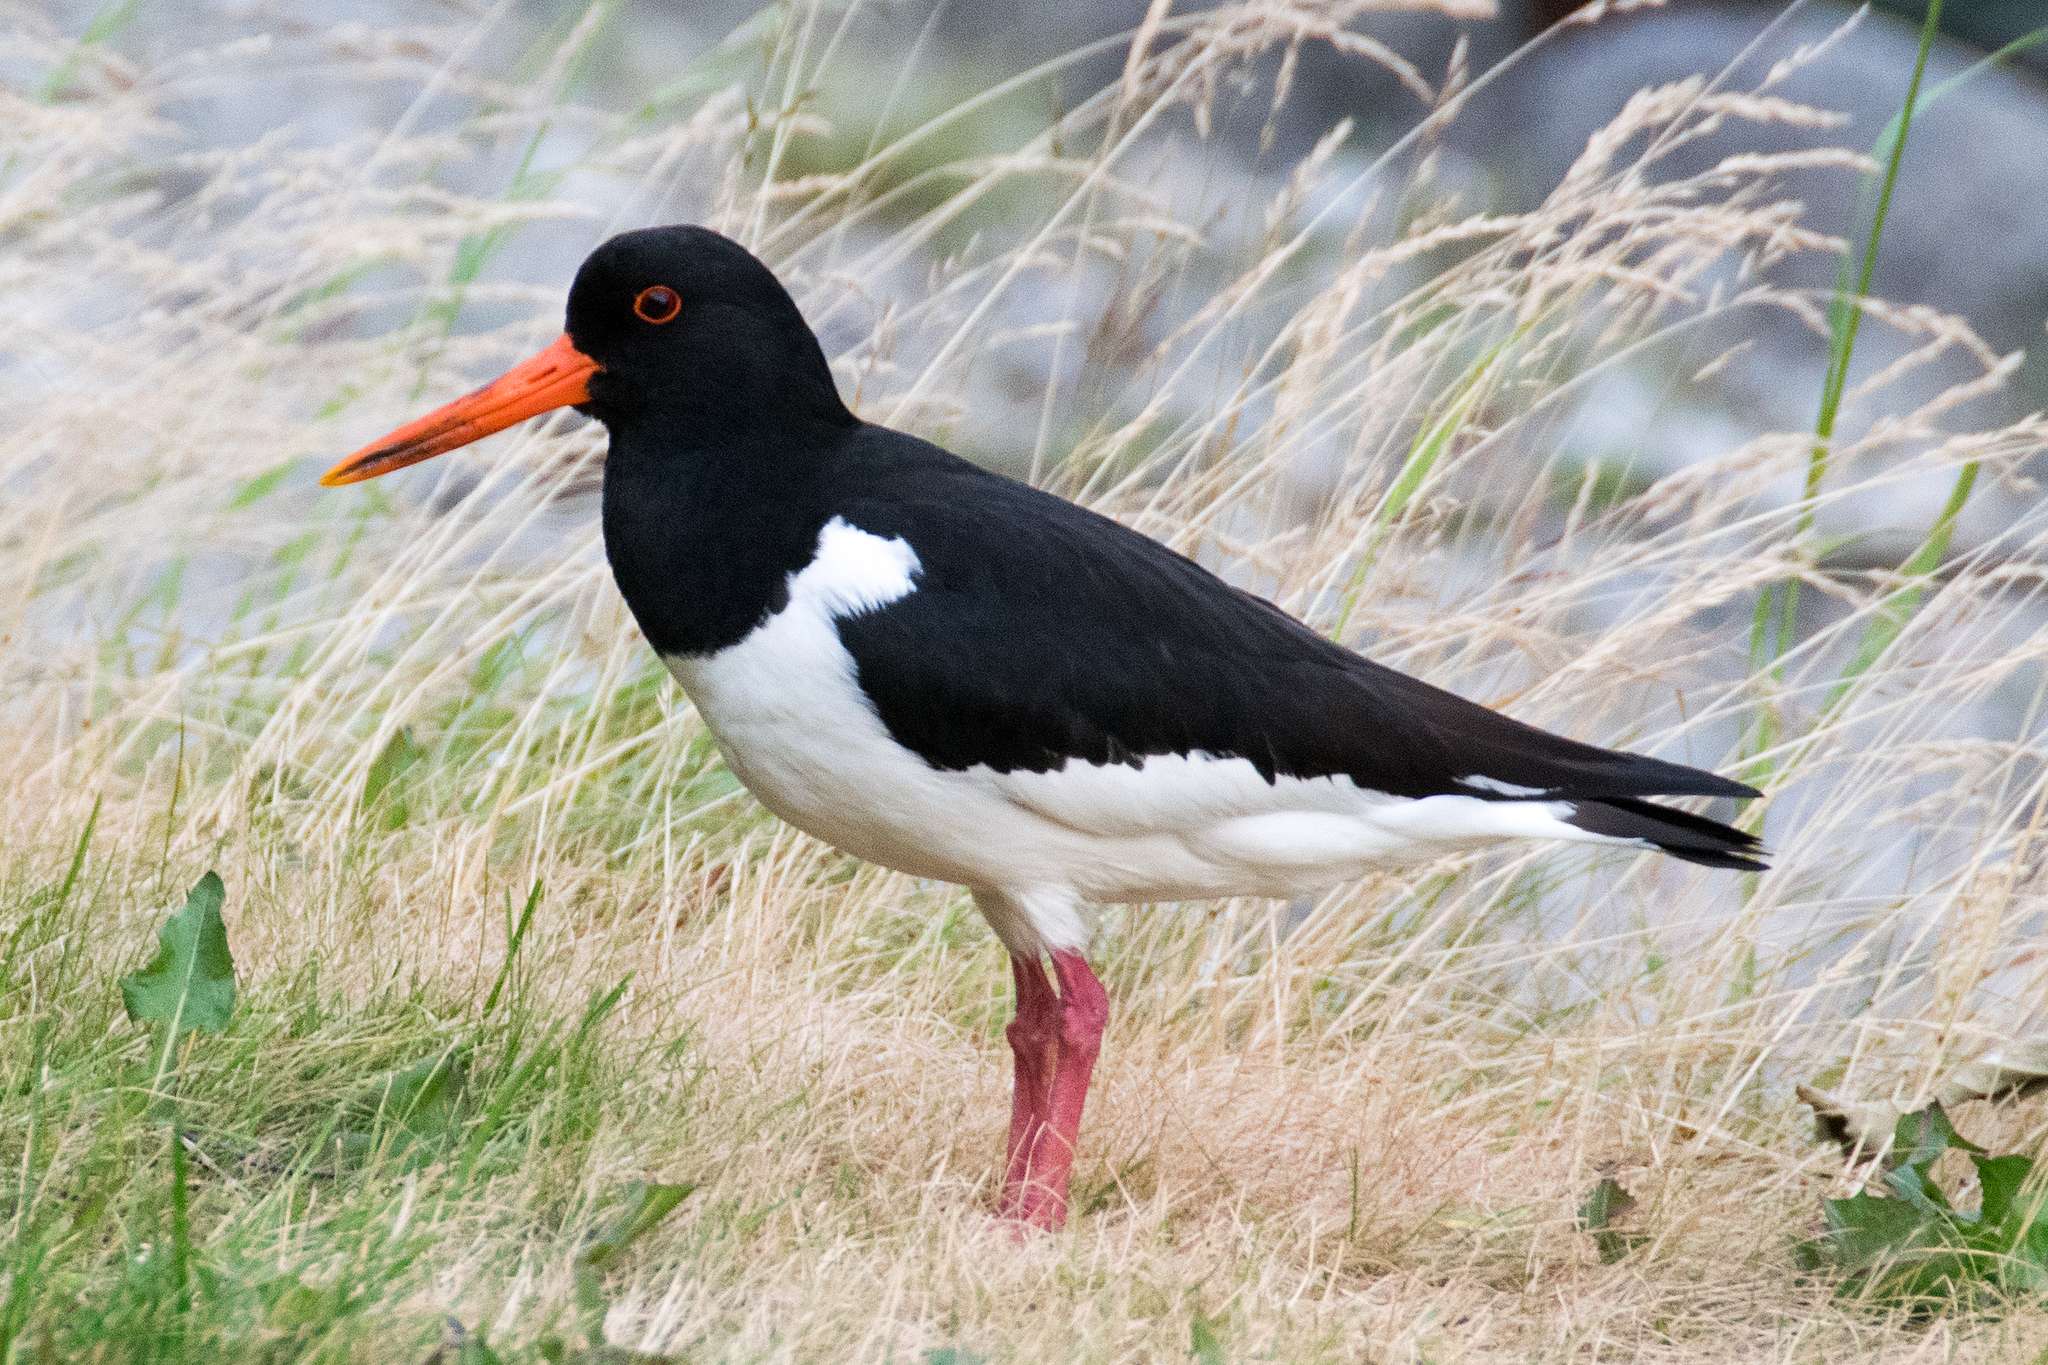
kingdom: Animalia
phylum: Chordata
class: Aves
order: Charadriiformes
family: Haematopodidae
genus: Haematopus
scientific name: Haematopus ostralegus
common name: Eurasian oystercatcher
